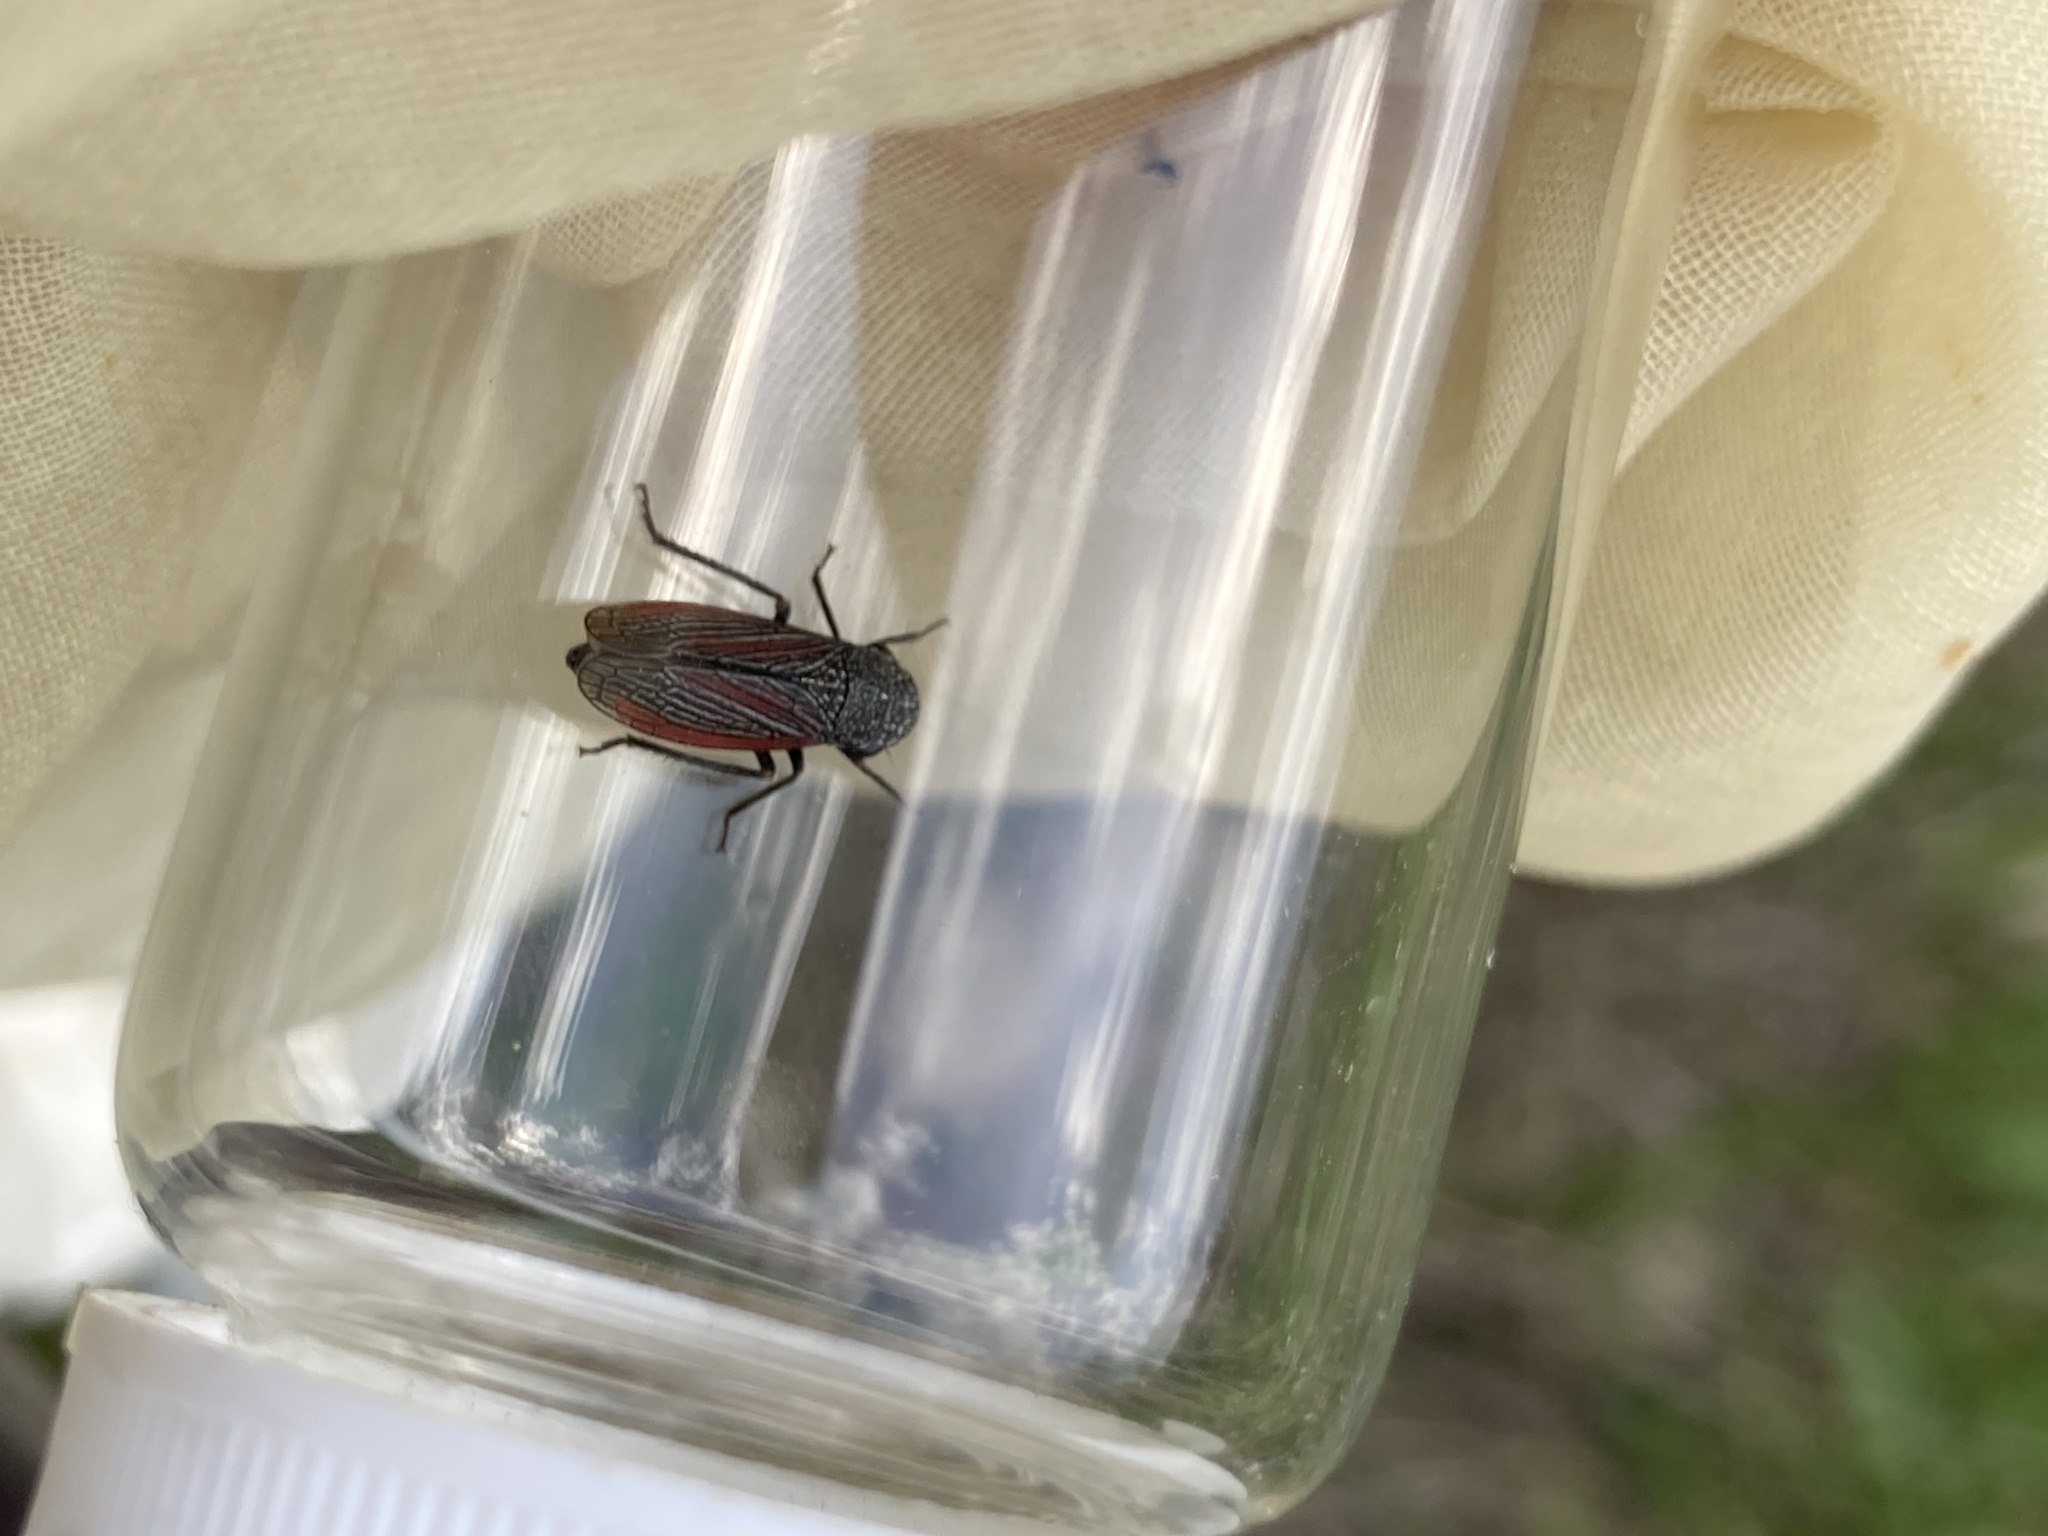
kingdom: Animalia
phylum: Arthropoda
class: Insecta
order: Hemiptera
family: Cicadellidae
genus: Cuerna
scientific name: Cuerna striata
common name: Striped leafhopper
